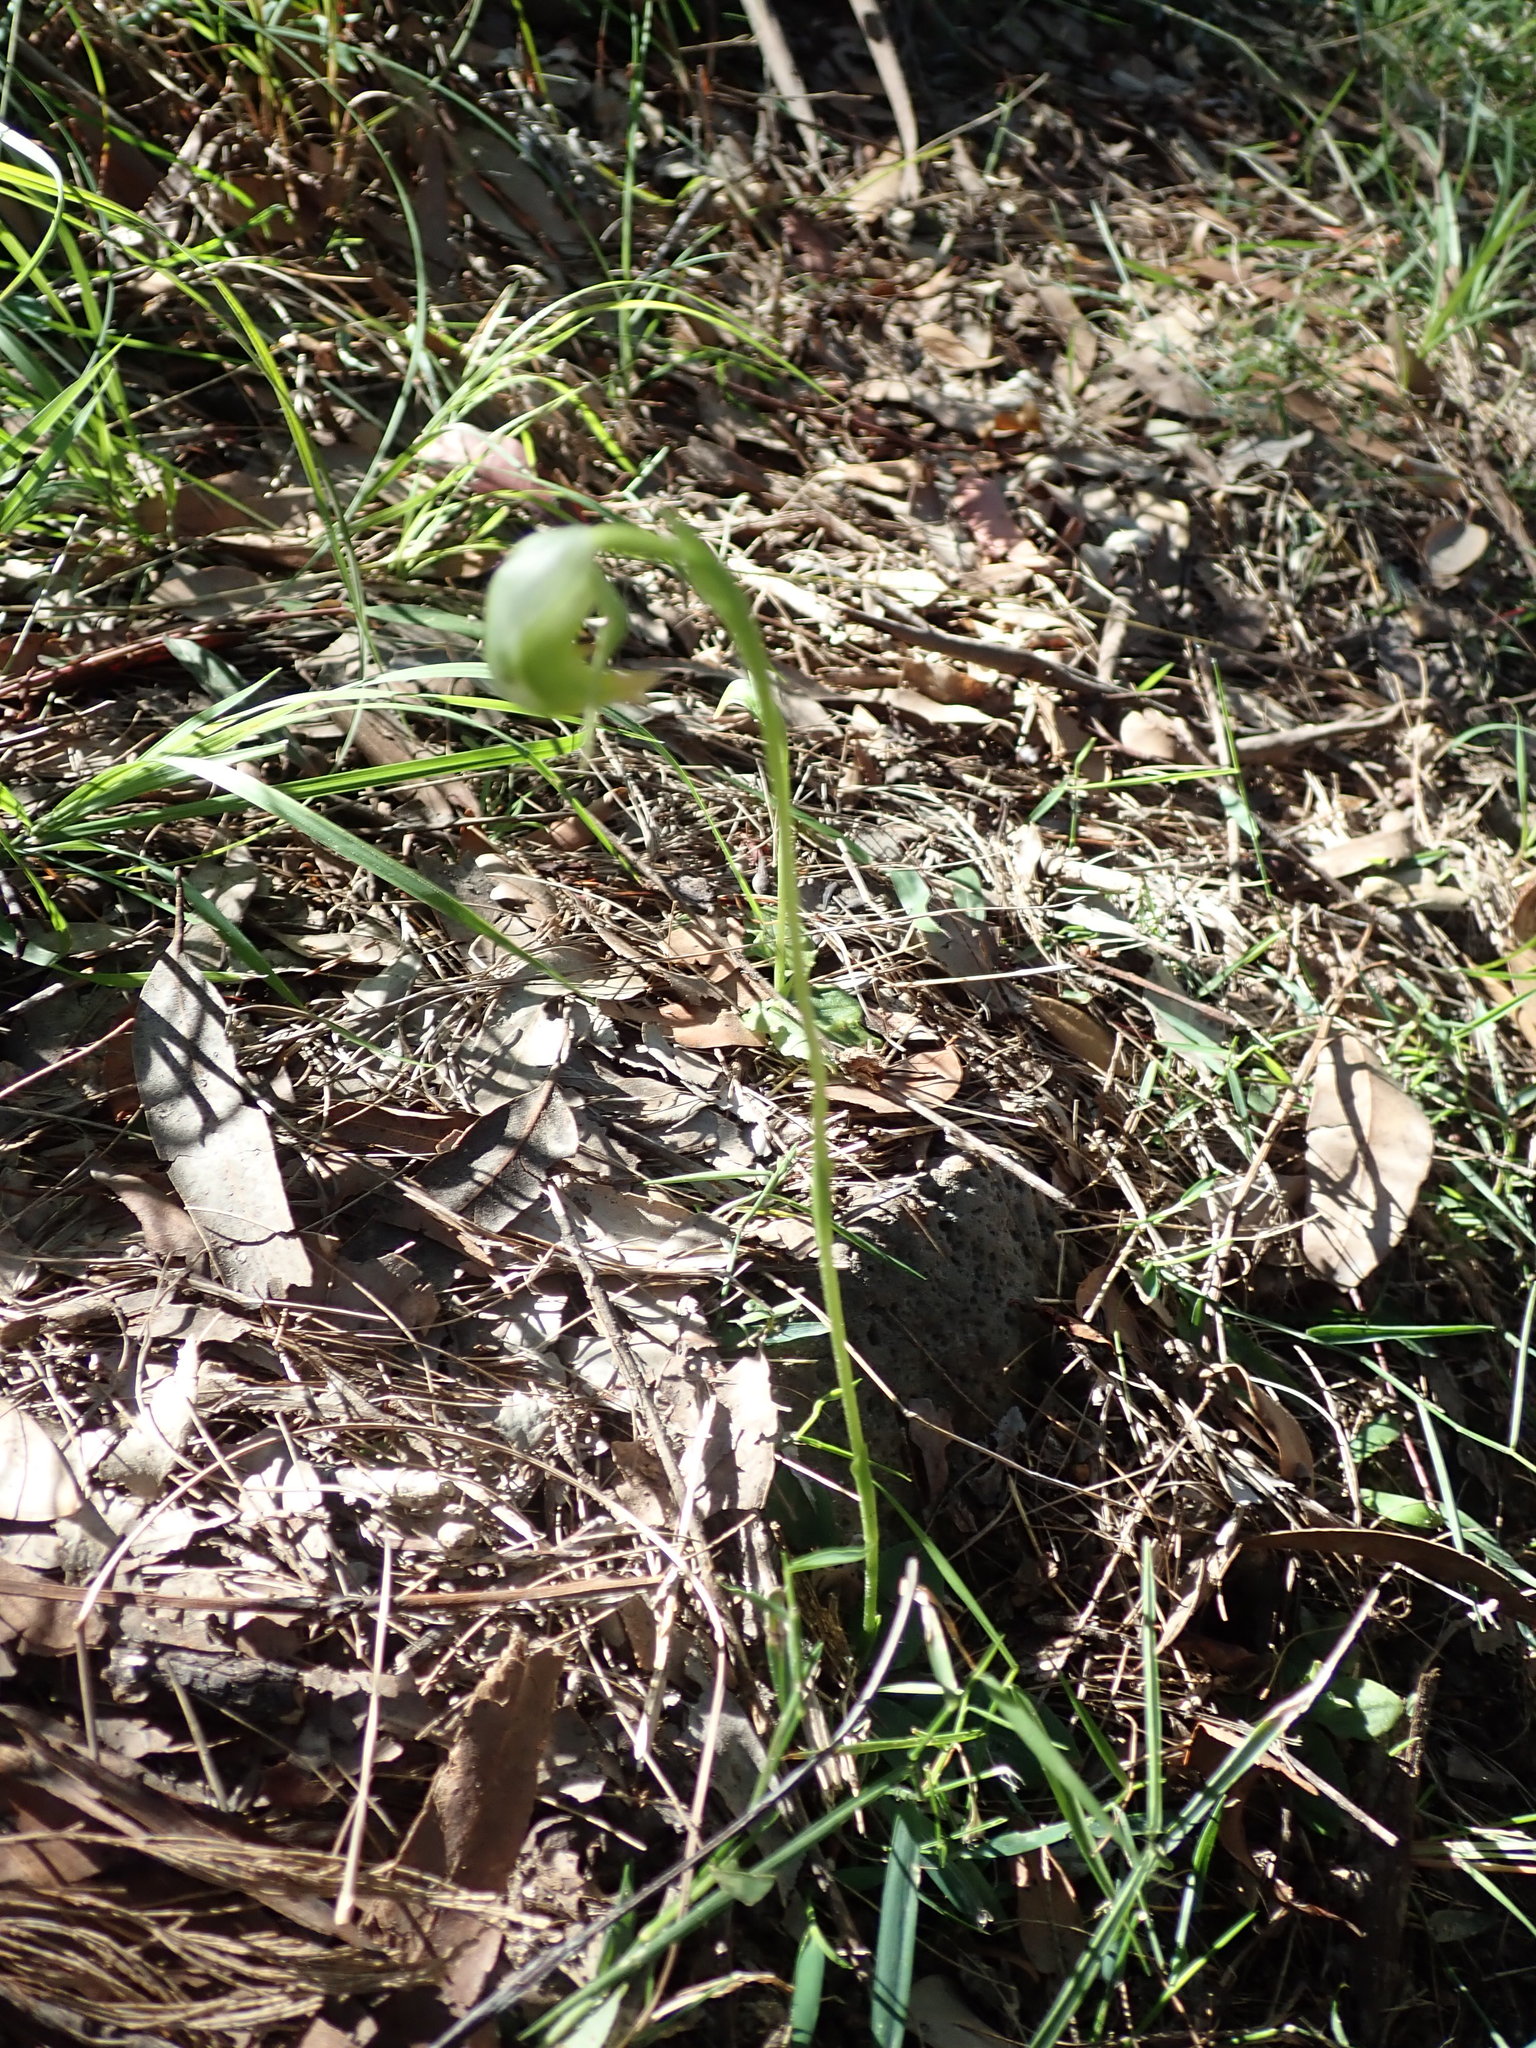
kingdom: Plantae
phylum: Tracheophyta
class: Liliopsida
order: Asparagales
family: Orchidaceae
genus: Pterostylis
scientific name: Pterostylis nutans
